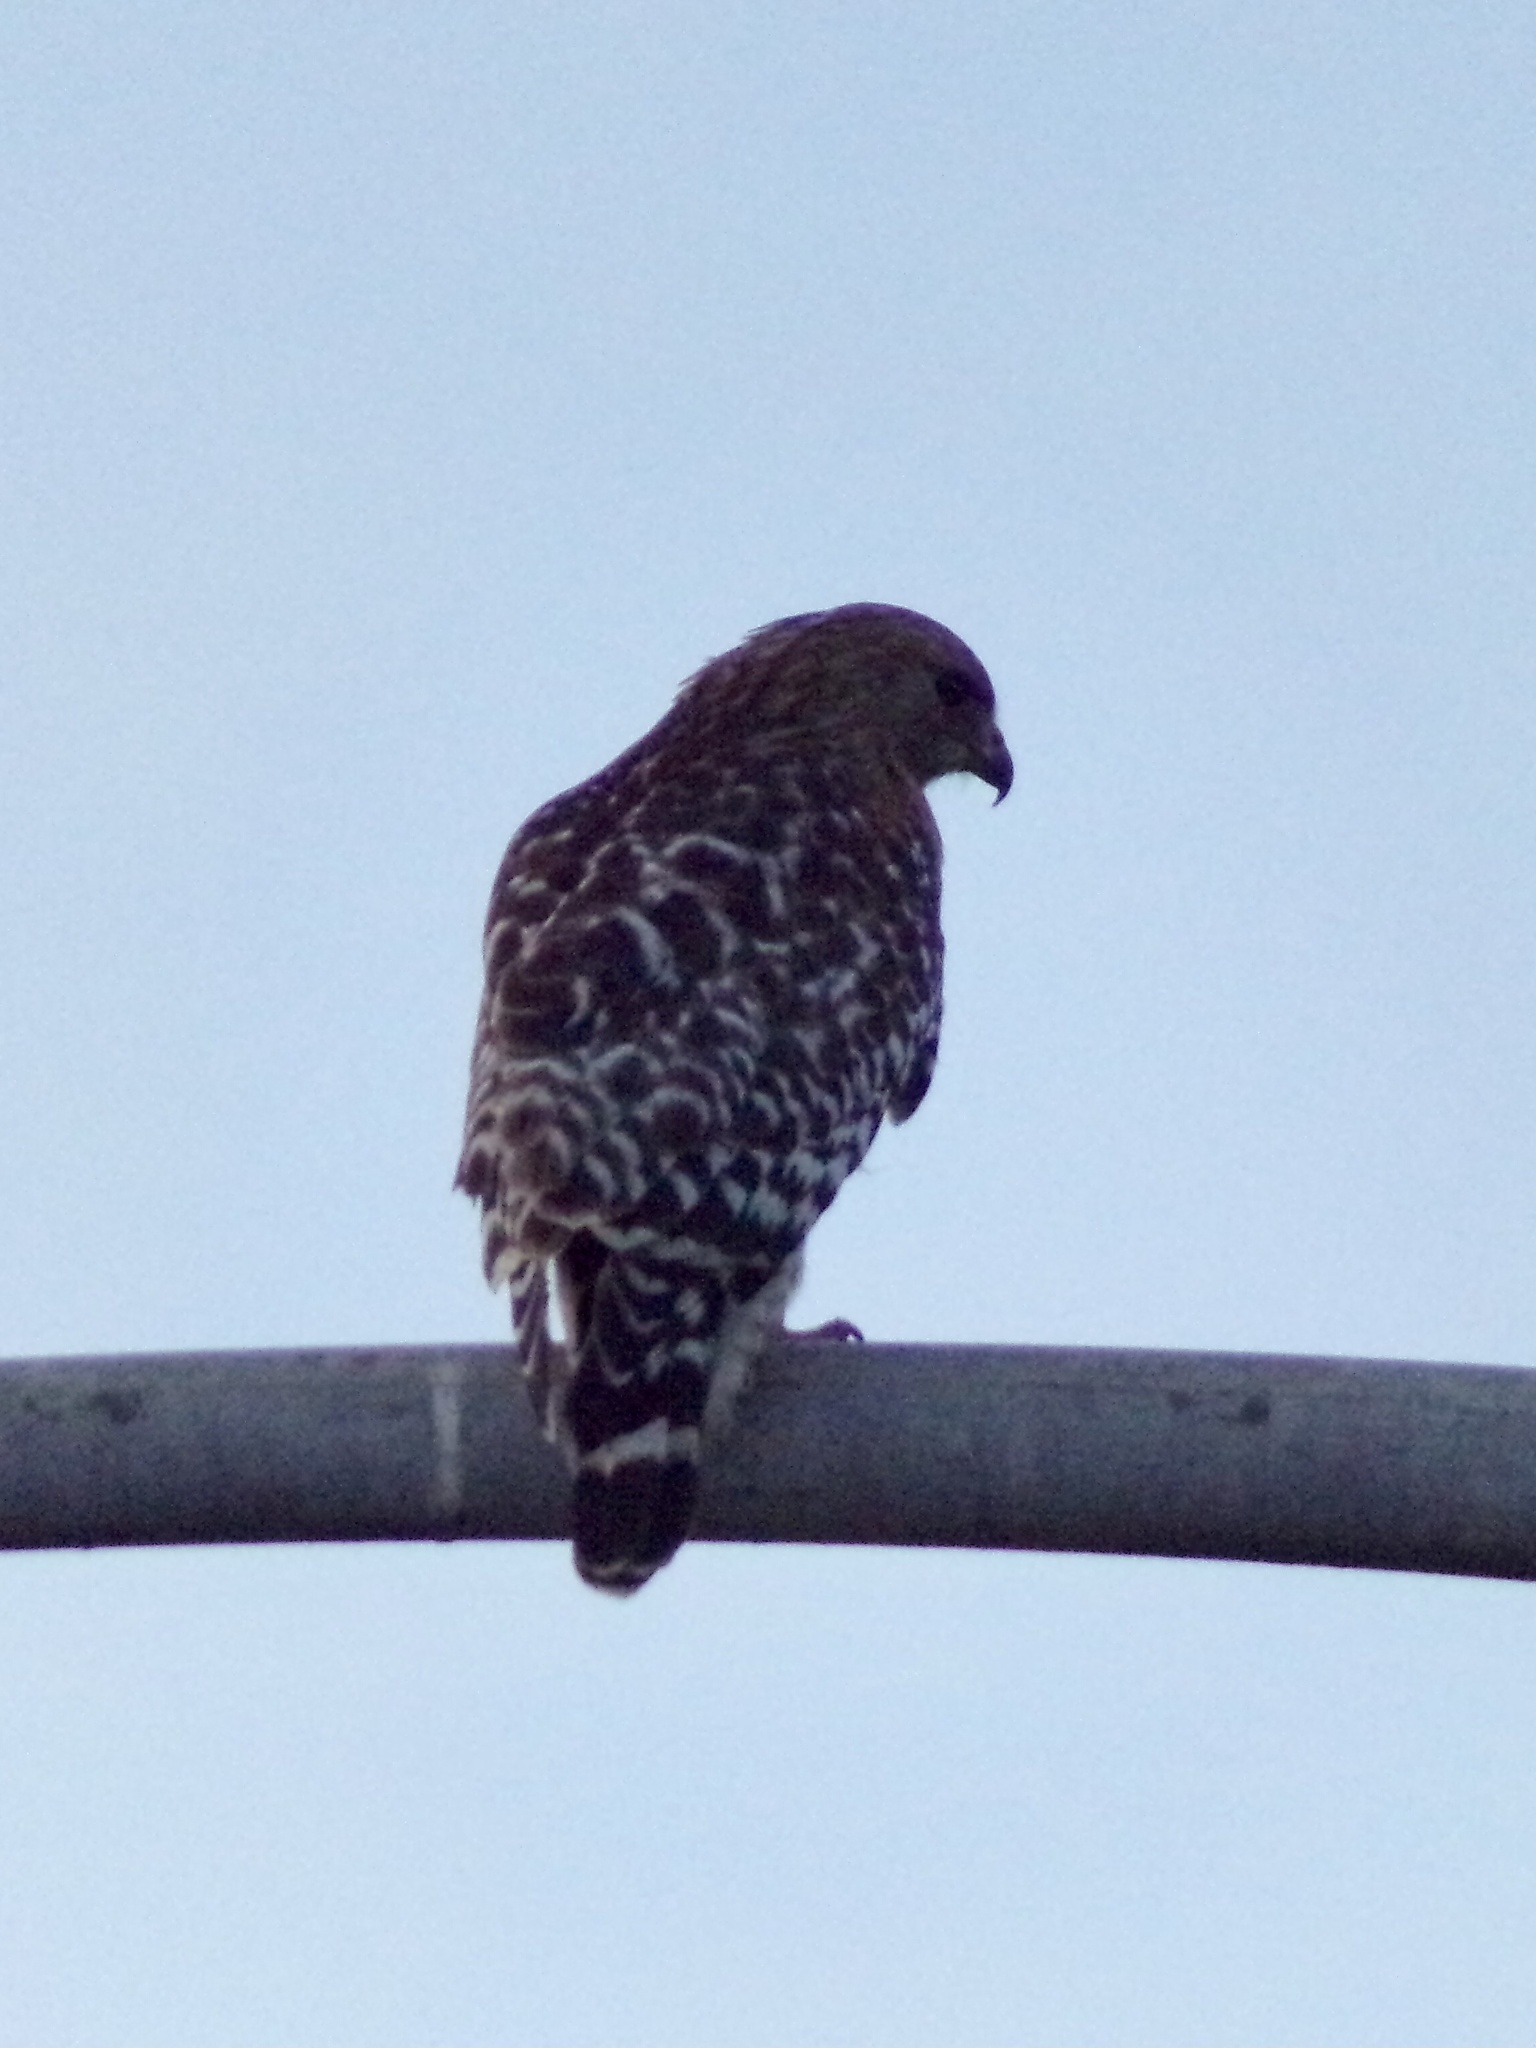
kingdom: Animalia
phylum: Chordata
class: Aves
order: Accipitriformes
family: Accipitridae
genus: Buteo
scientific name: Buteo lineatus
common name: Red-shouldered hawk
